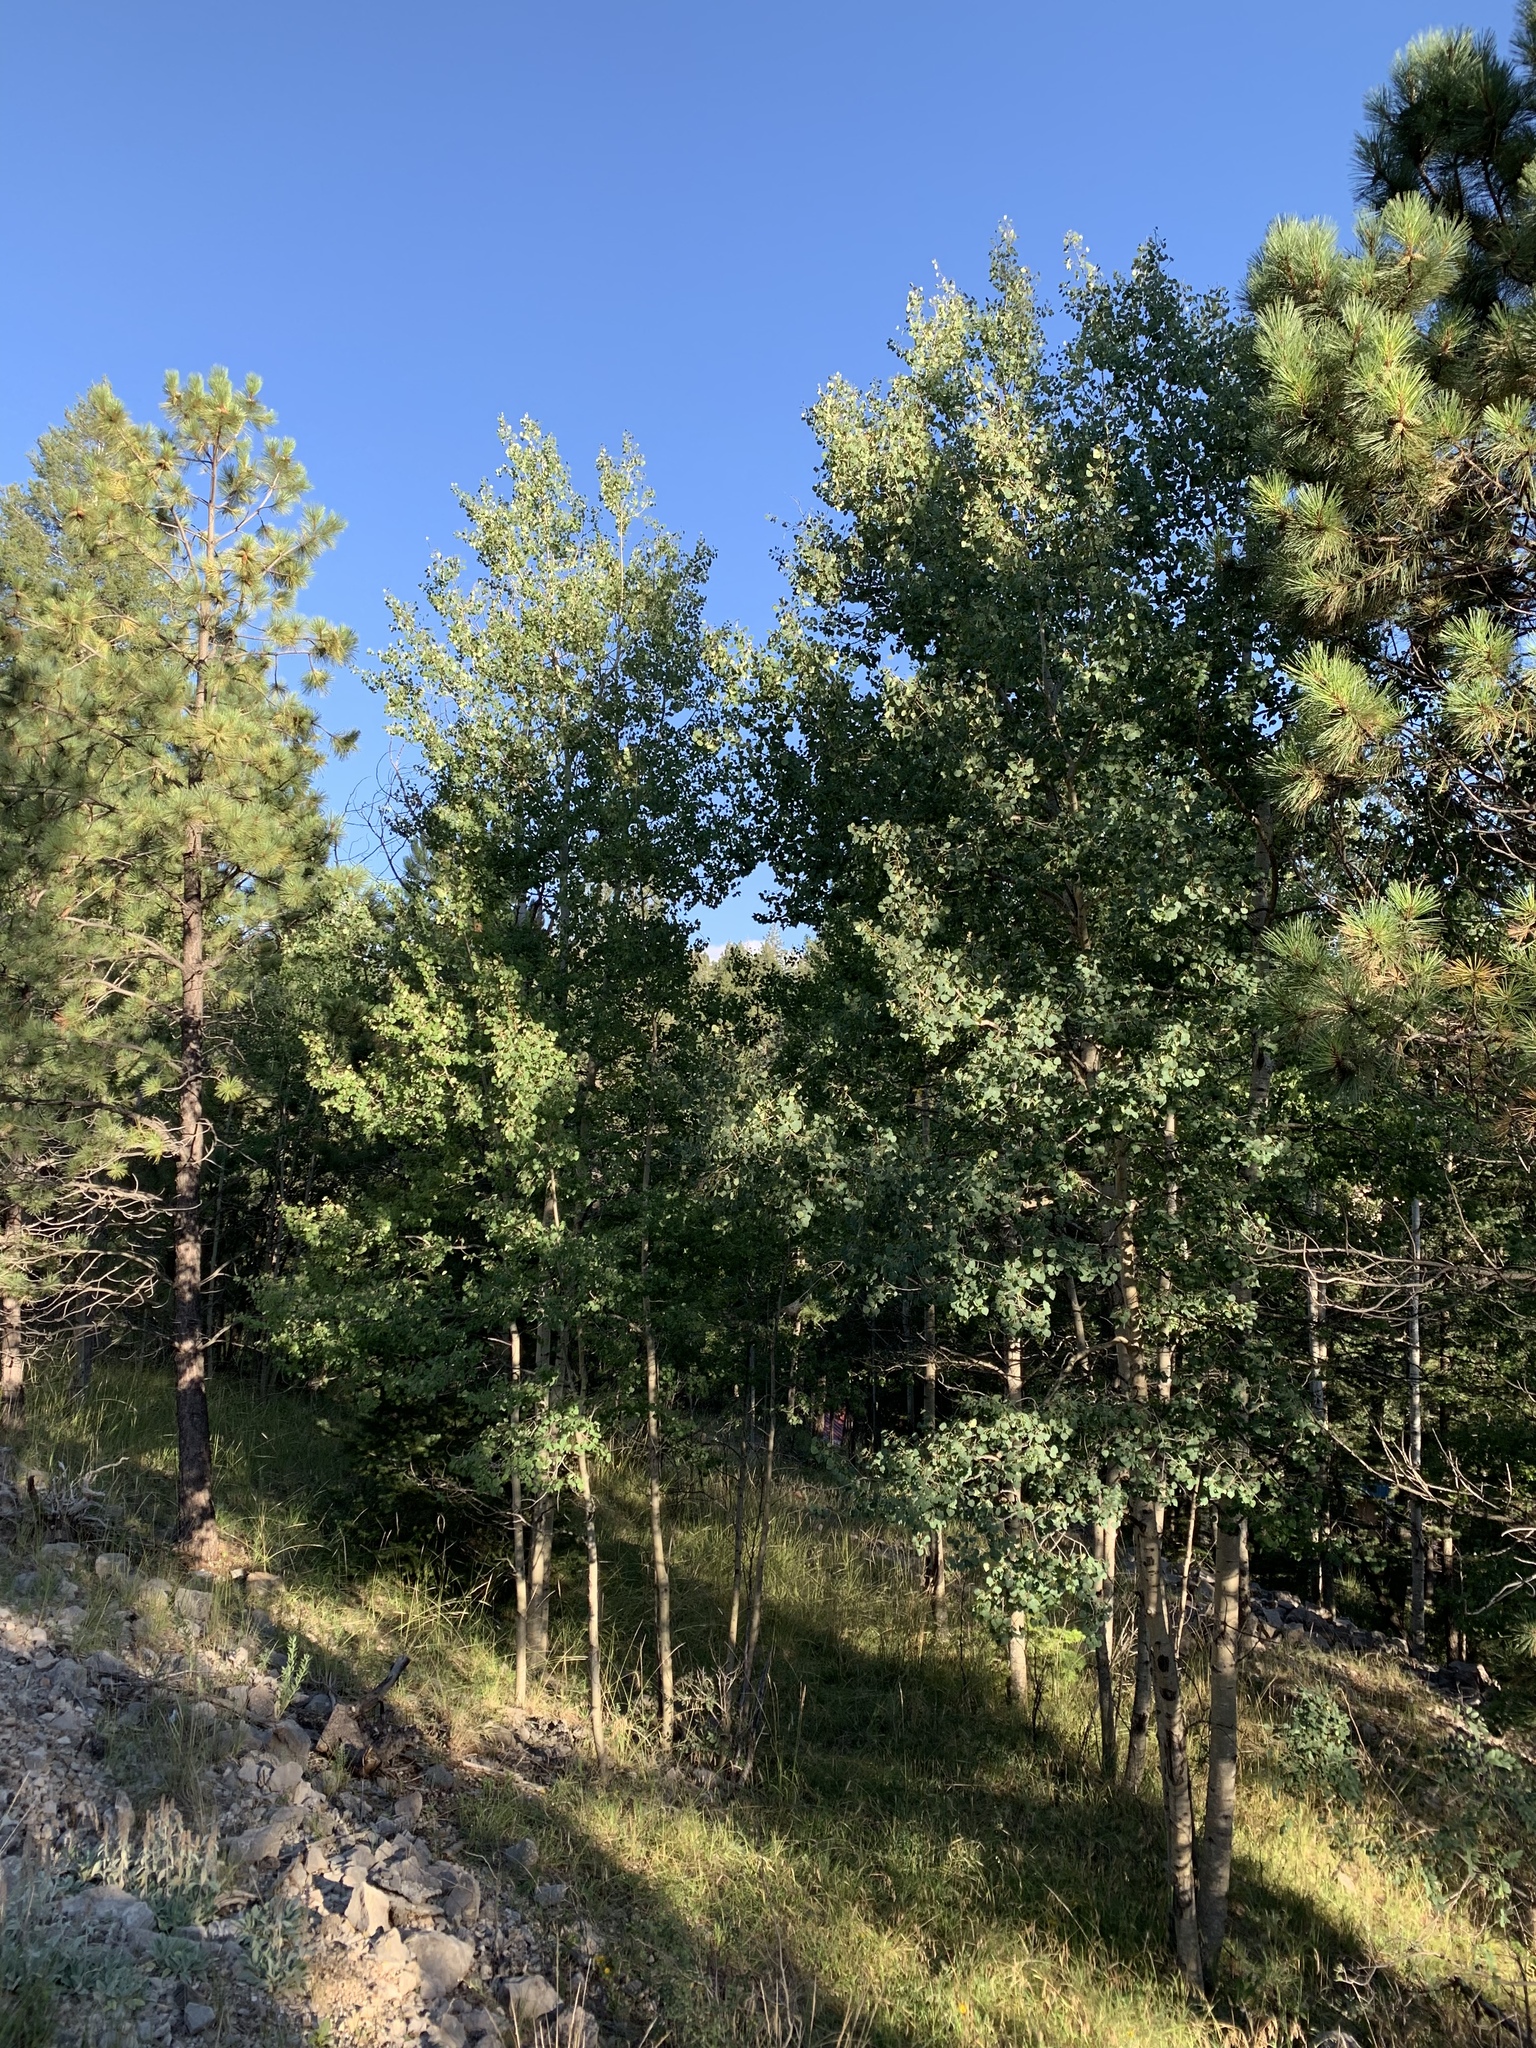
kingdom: Plantae
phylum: Tracheophyta
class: Magnoliopsida
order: Malpighiales
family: Salicaceae
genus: Populus
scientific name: Populus tremuloides
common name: Quaking aspen
